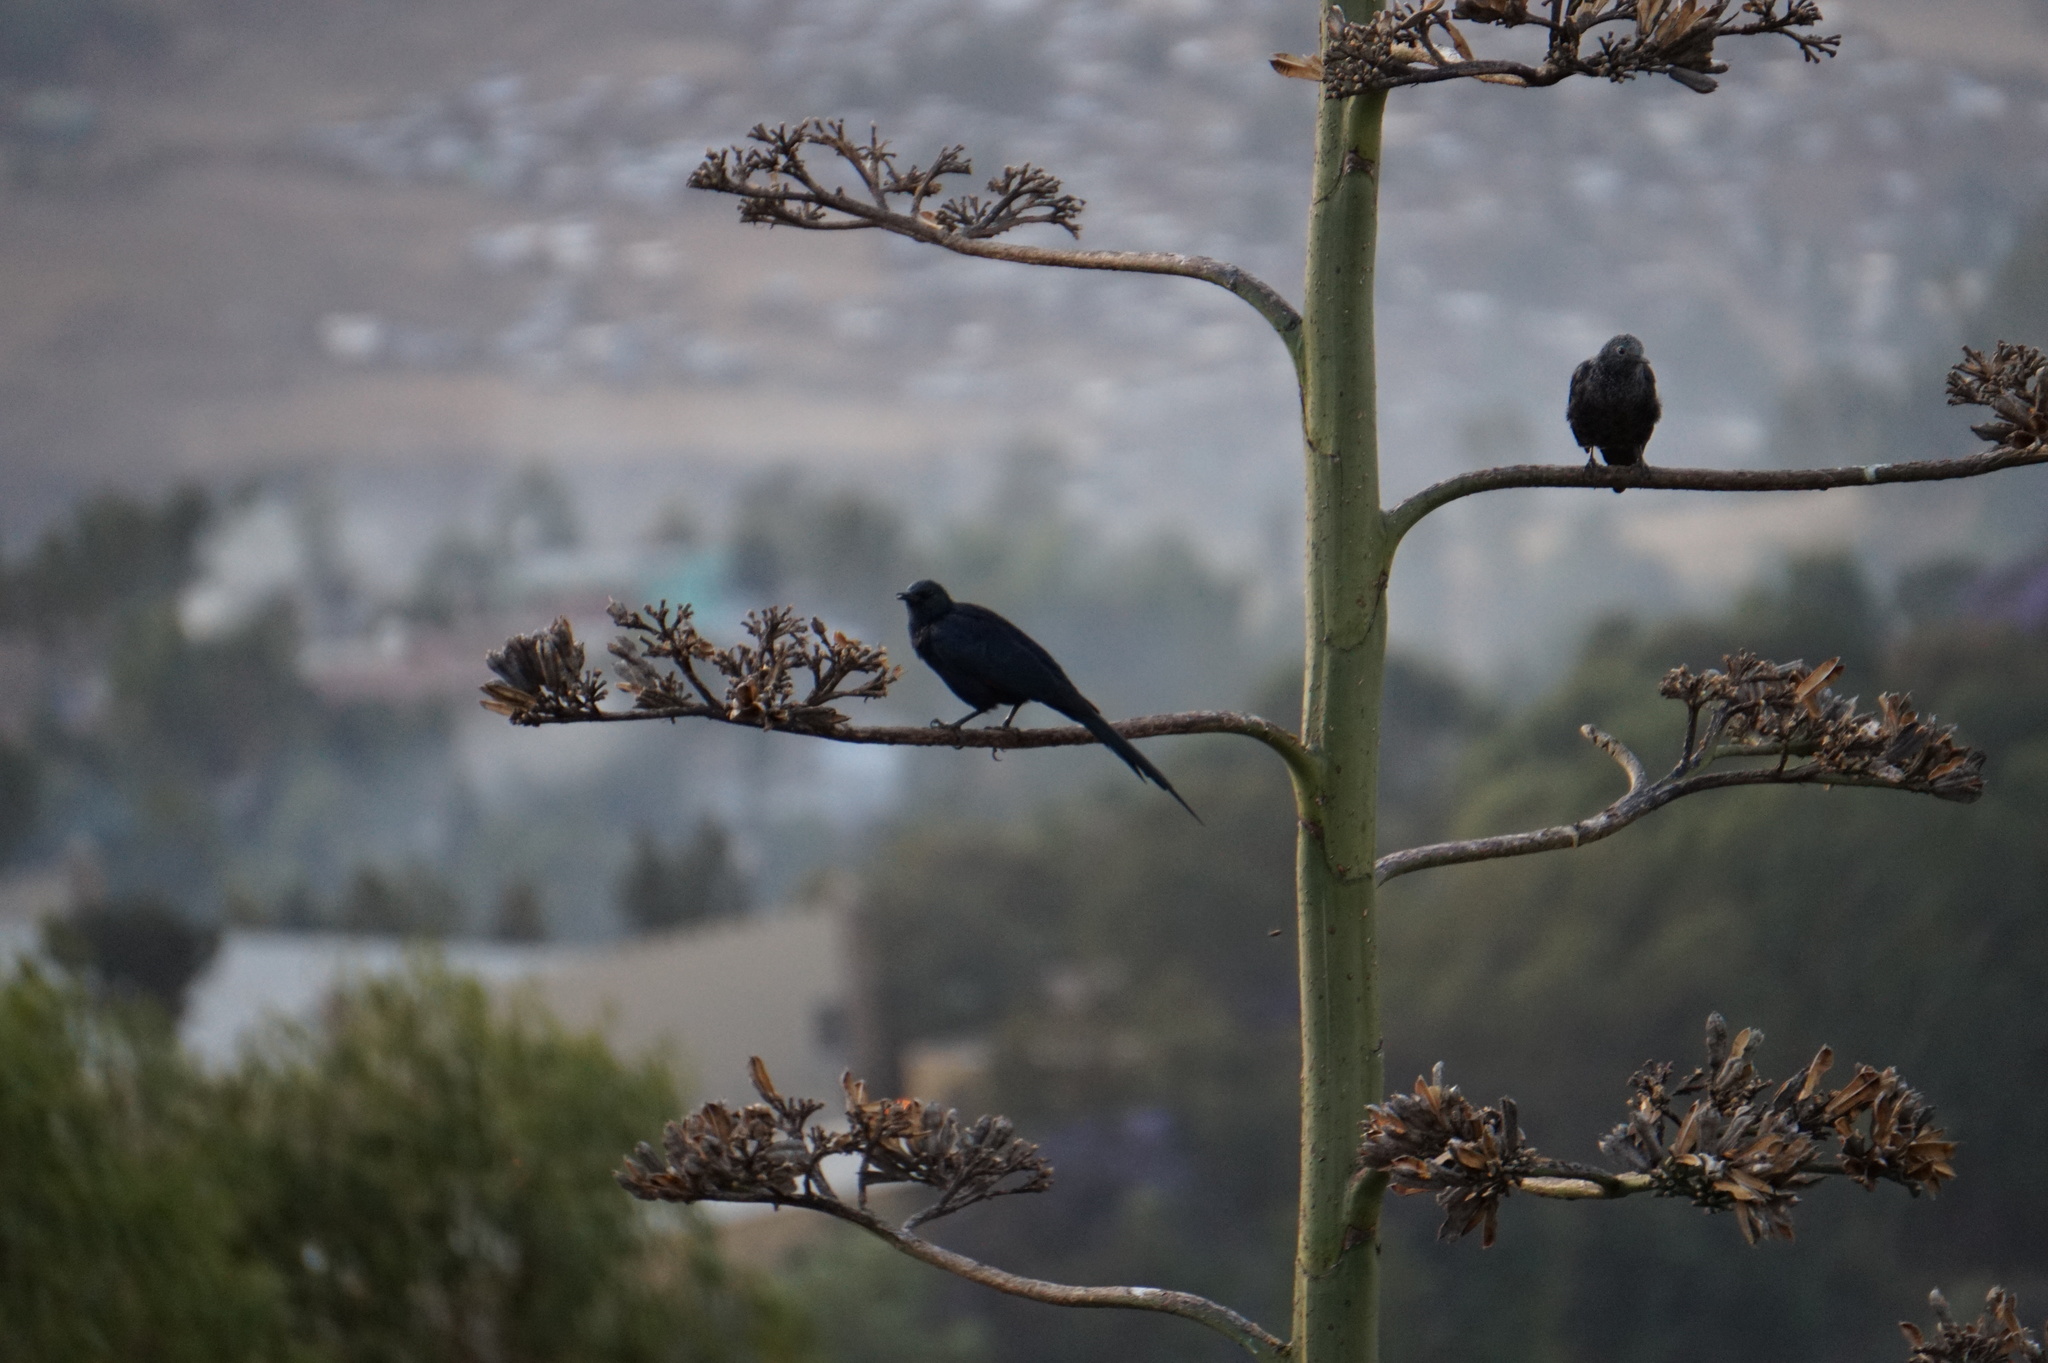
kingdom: Animalia
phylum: Chordata
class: Aves
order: Passeriformes
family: Sturnidae
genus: Onychognathus
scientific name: Onychognathus morio
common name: Red-winged starling
